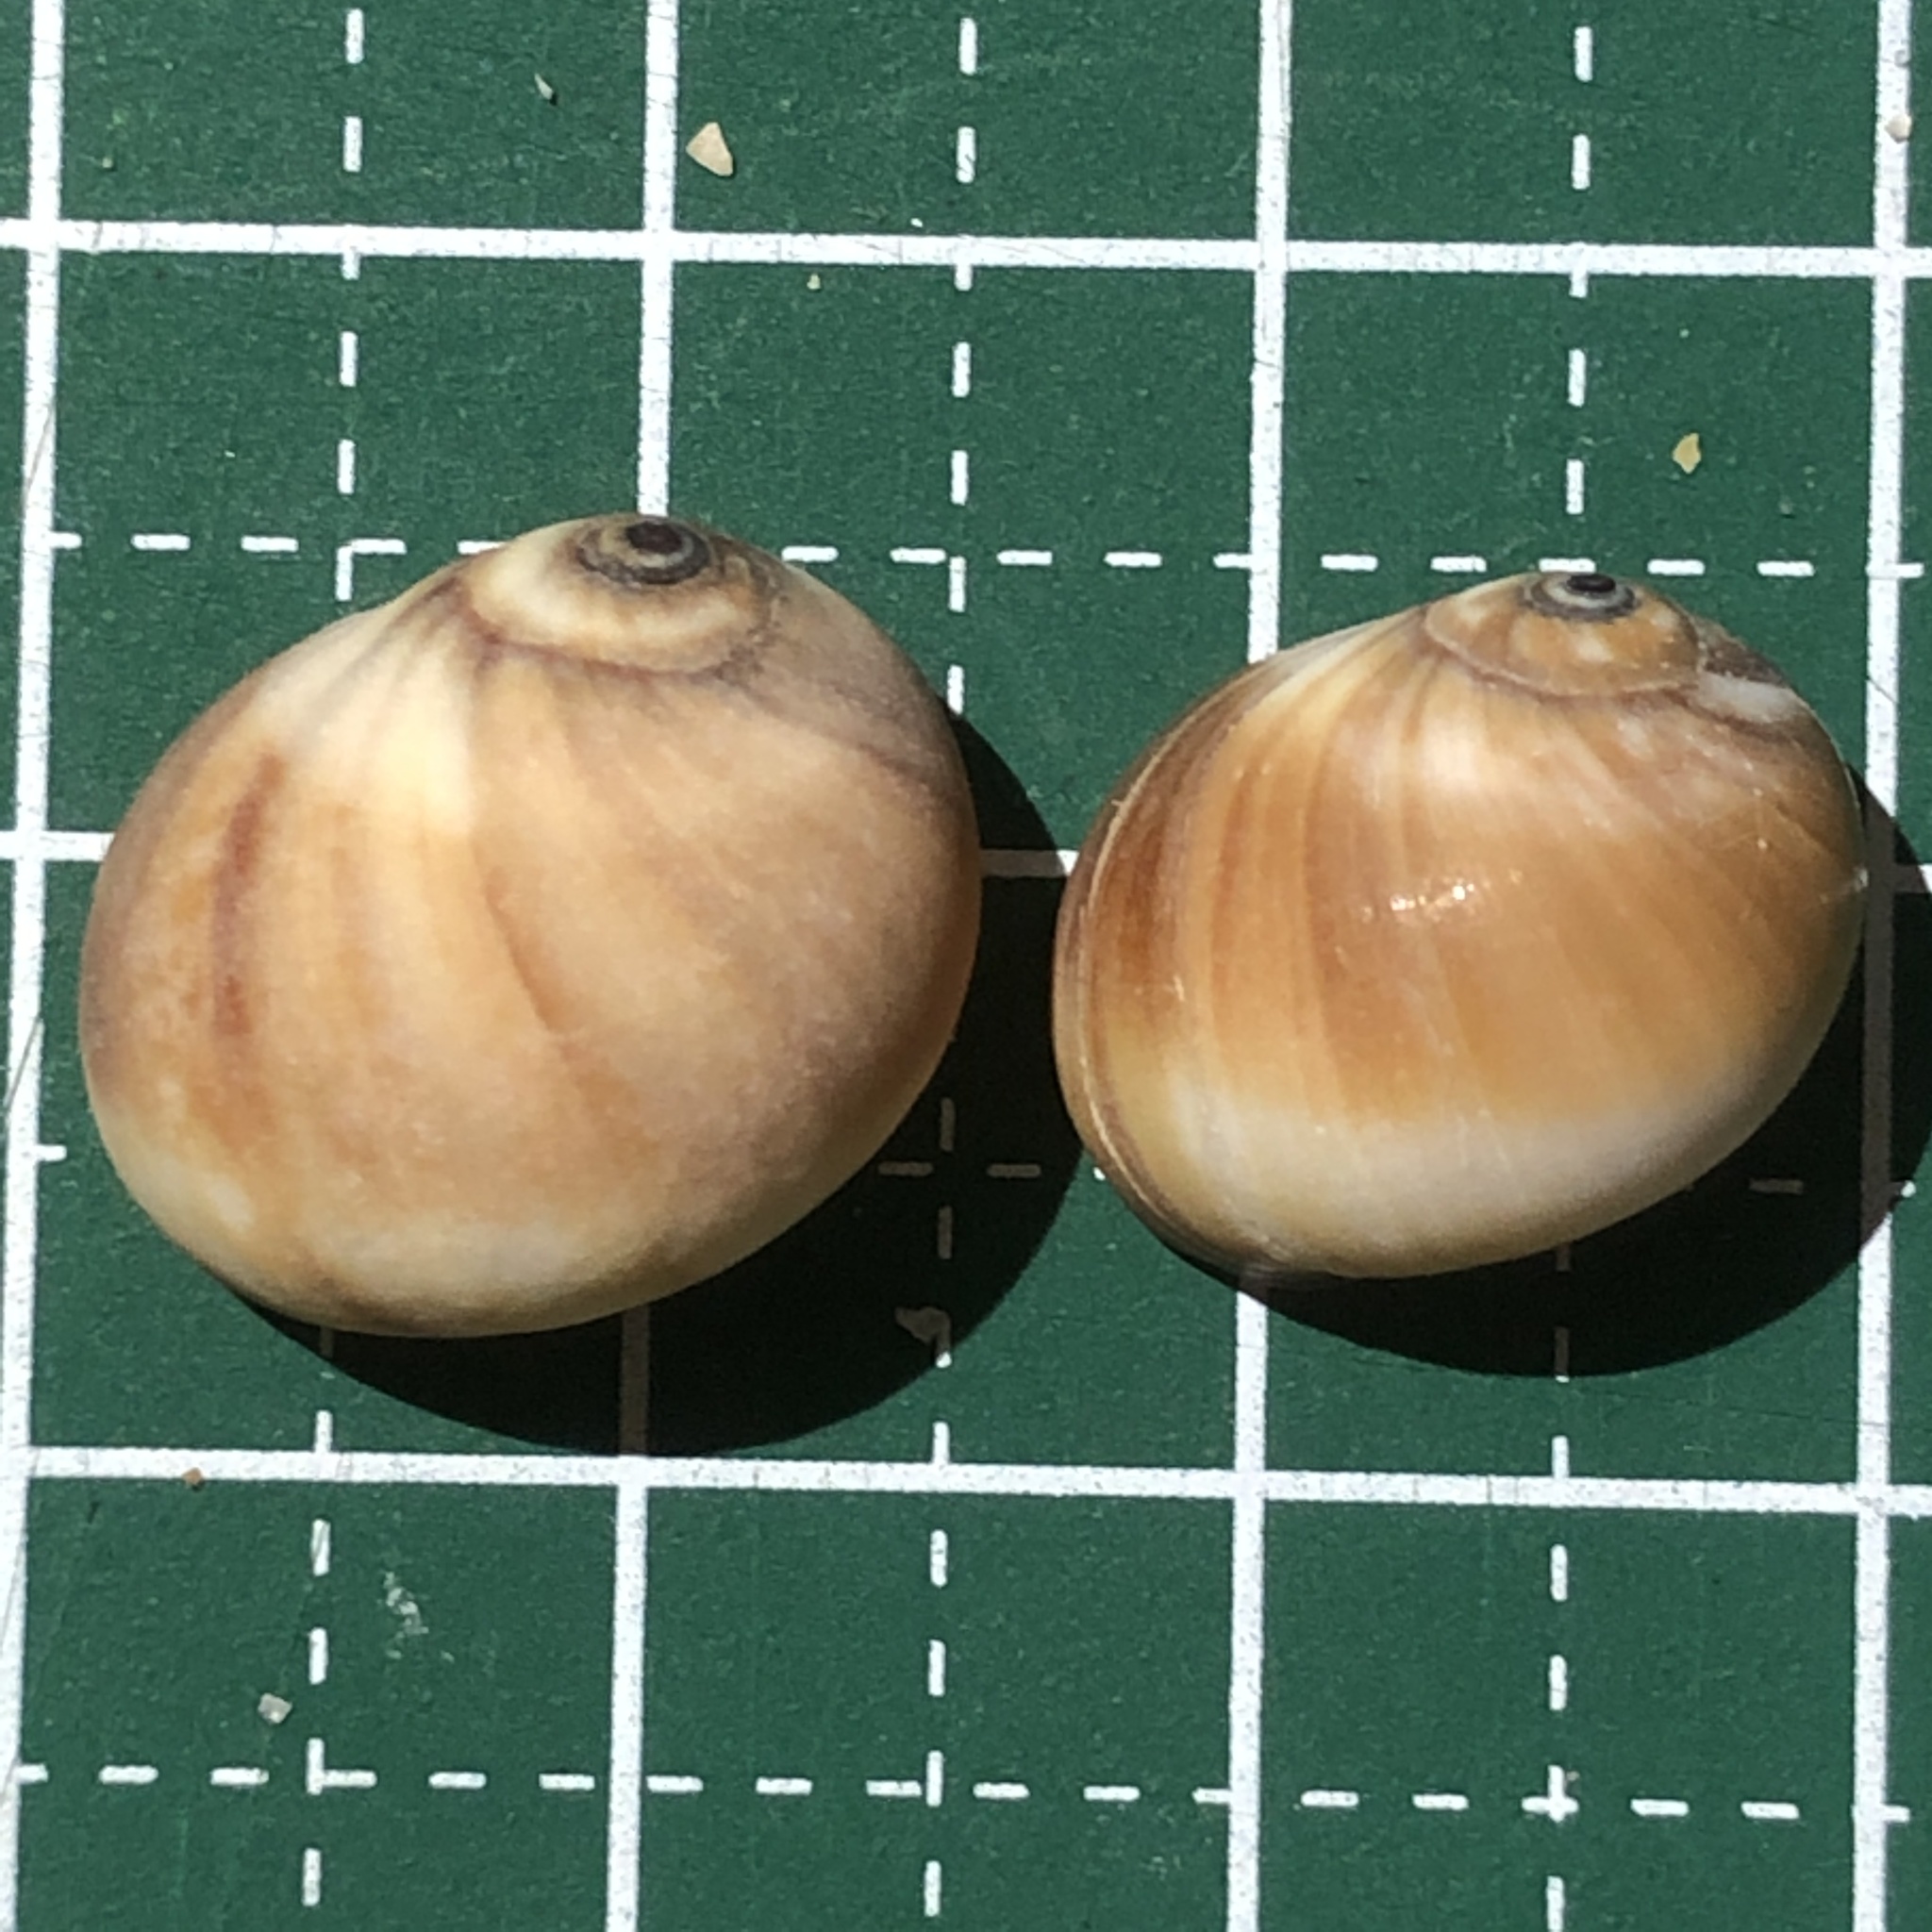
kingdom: Animalia
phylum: Mollusca
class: Gastropoda
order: Littorinimorpha
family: Naticidae
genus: Natica
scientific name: Natica fasciata
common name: Solid moonsnail
